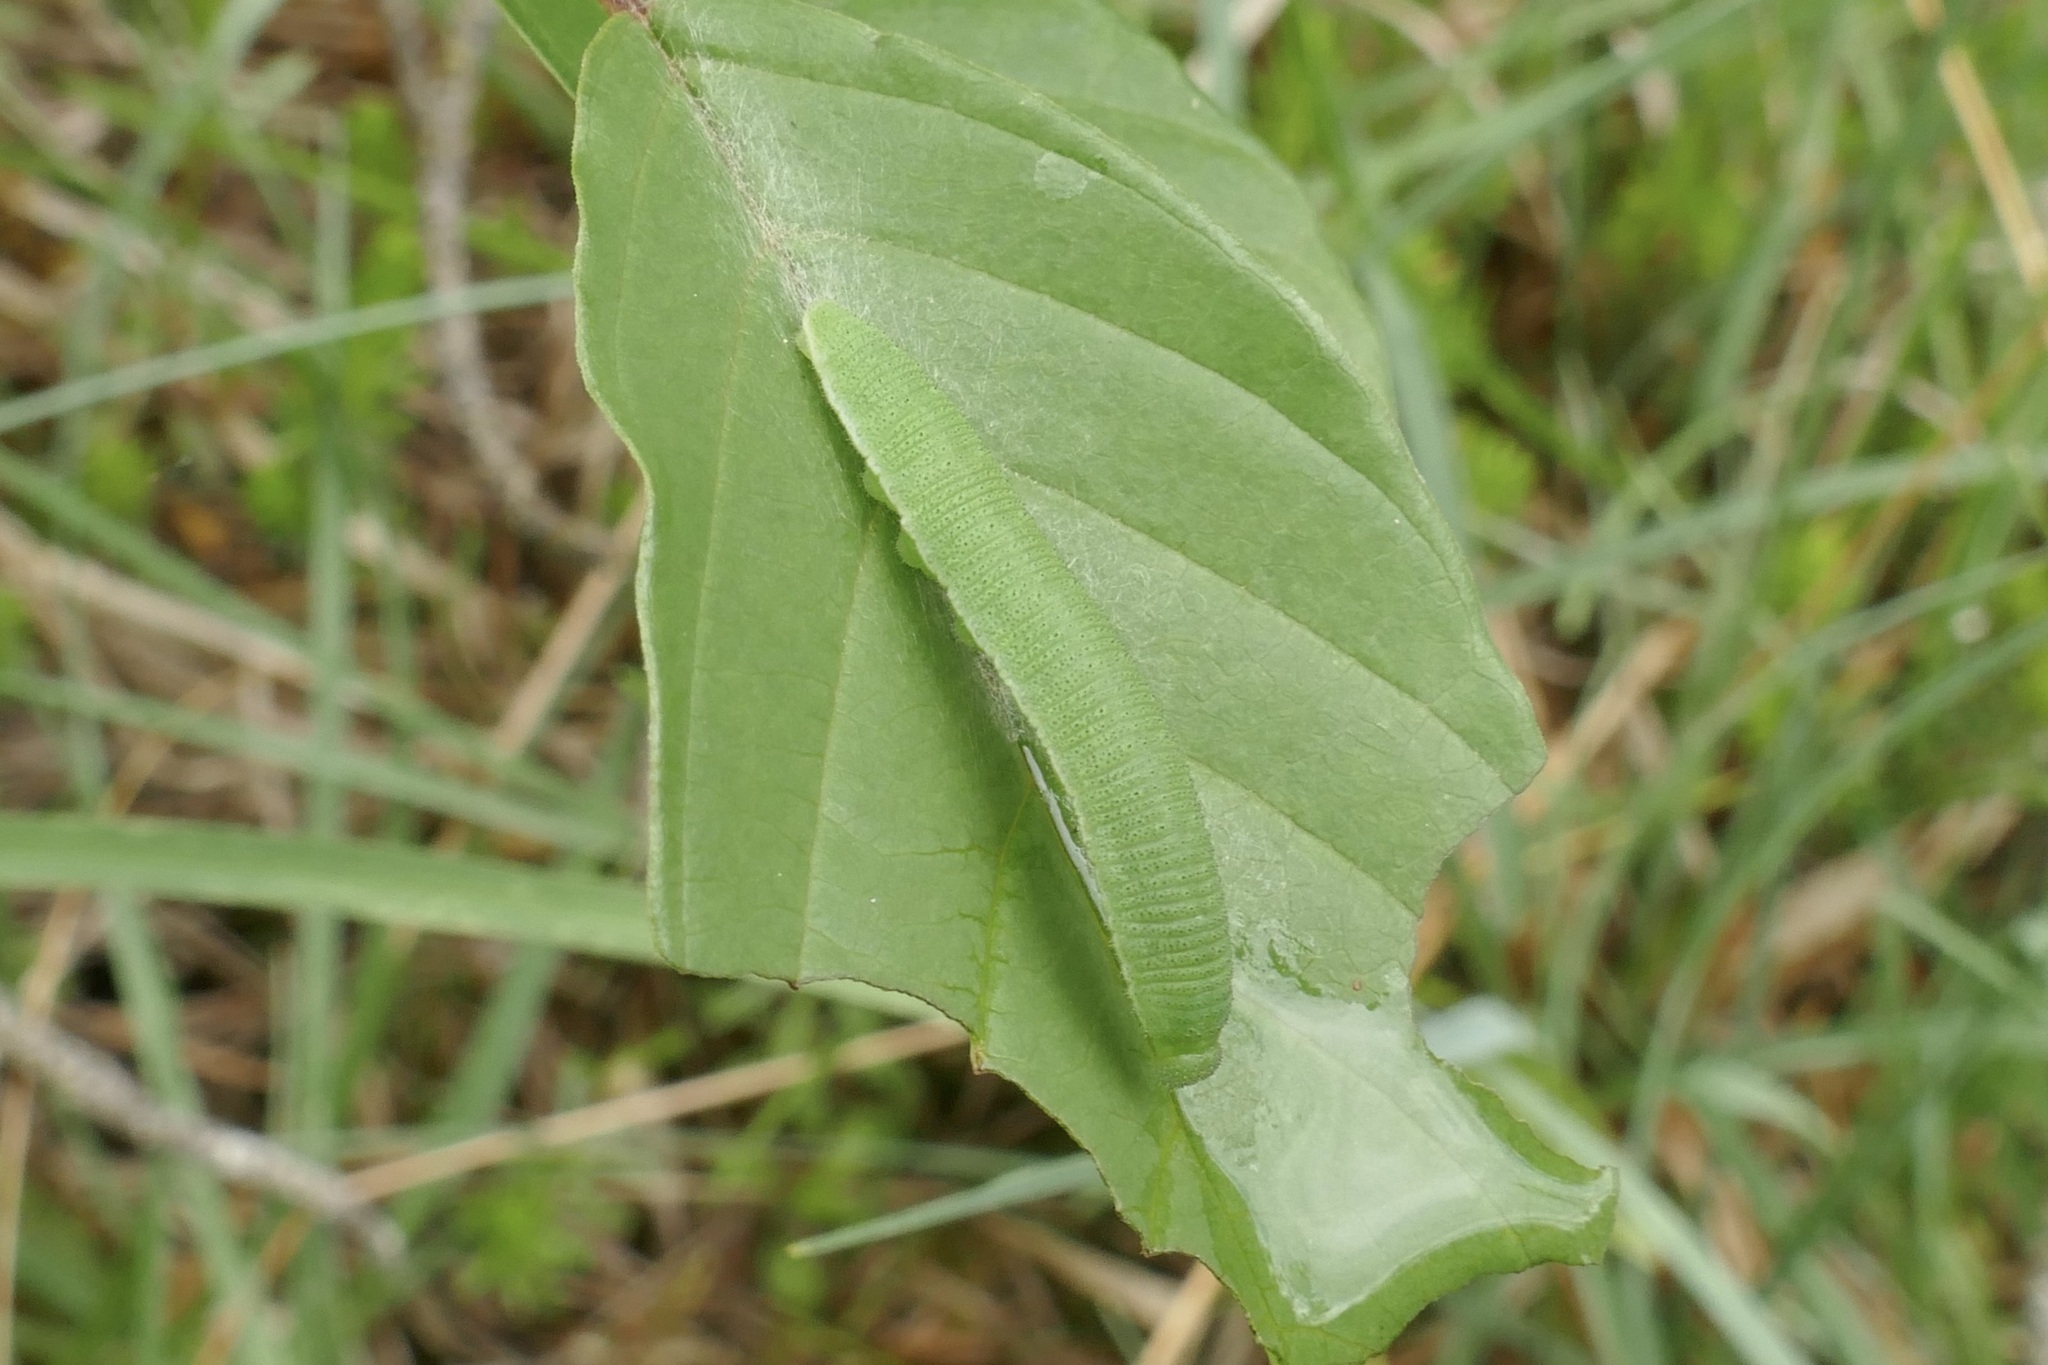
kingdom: Animalia
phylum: Arthropoda
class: Insecta
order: Lepidoptera
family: Pieridae
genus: Gonepteryx
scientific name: Gonepteryx rhamni
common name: Brimstone
